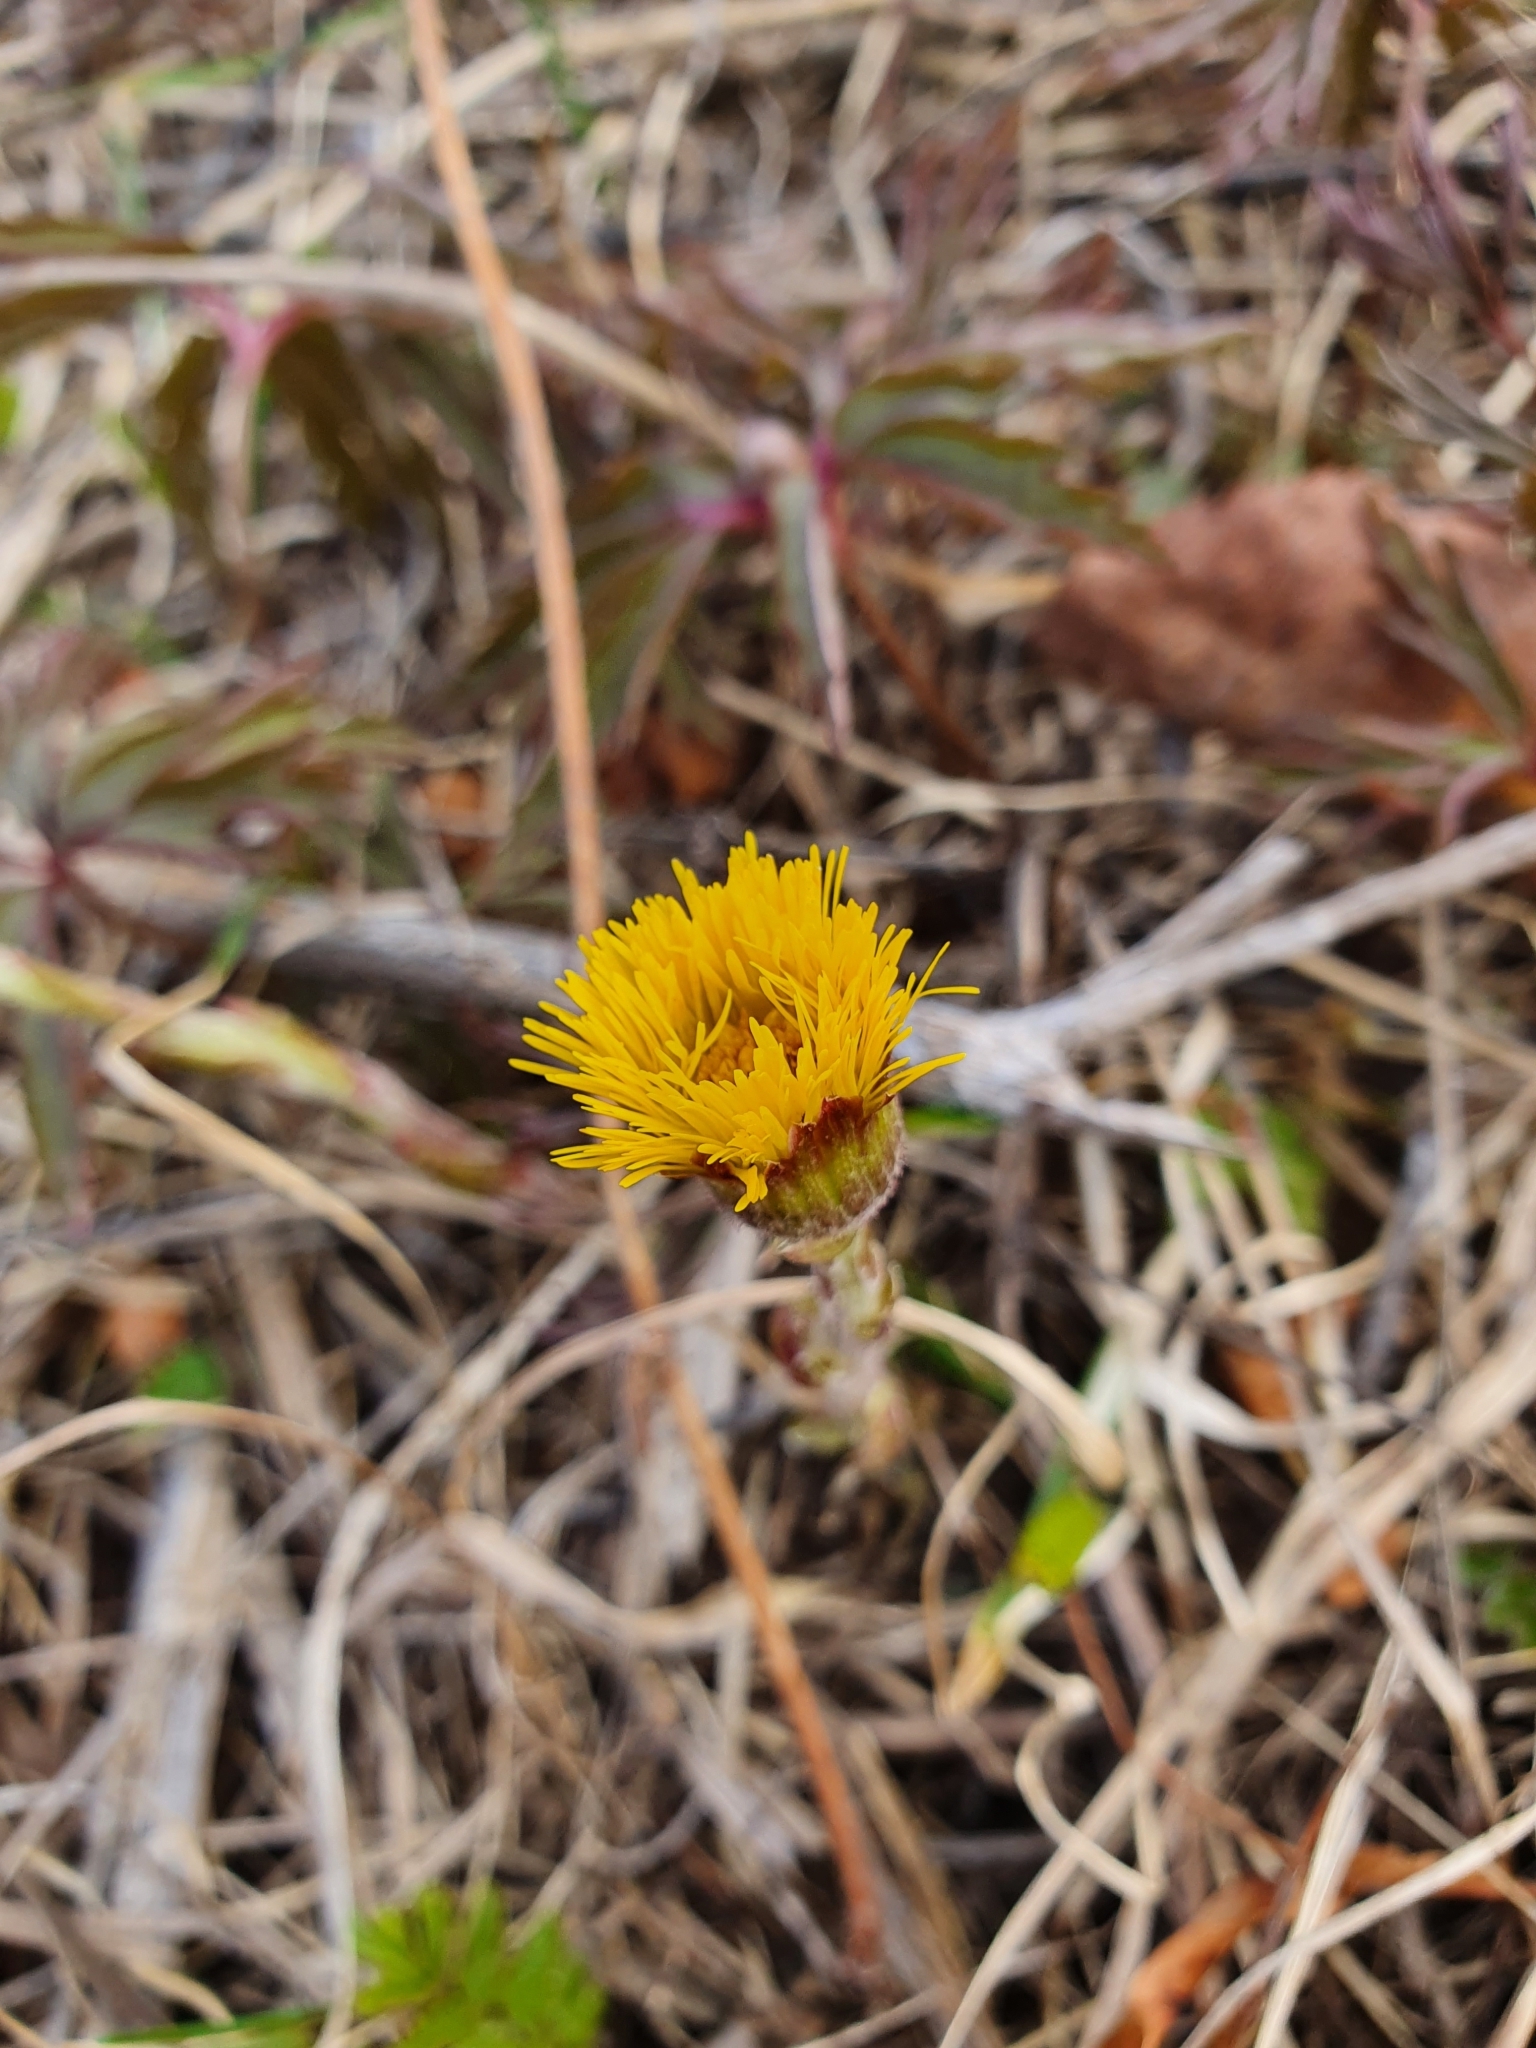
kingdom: Plantae
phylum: Tracheophyta
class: Magnoliopsida
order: Asterales
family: Asteraceae
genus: Tussilago
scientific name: Tussilago farfara
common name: Coltsfoot
